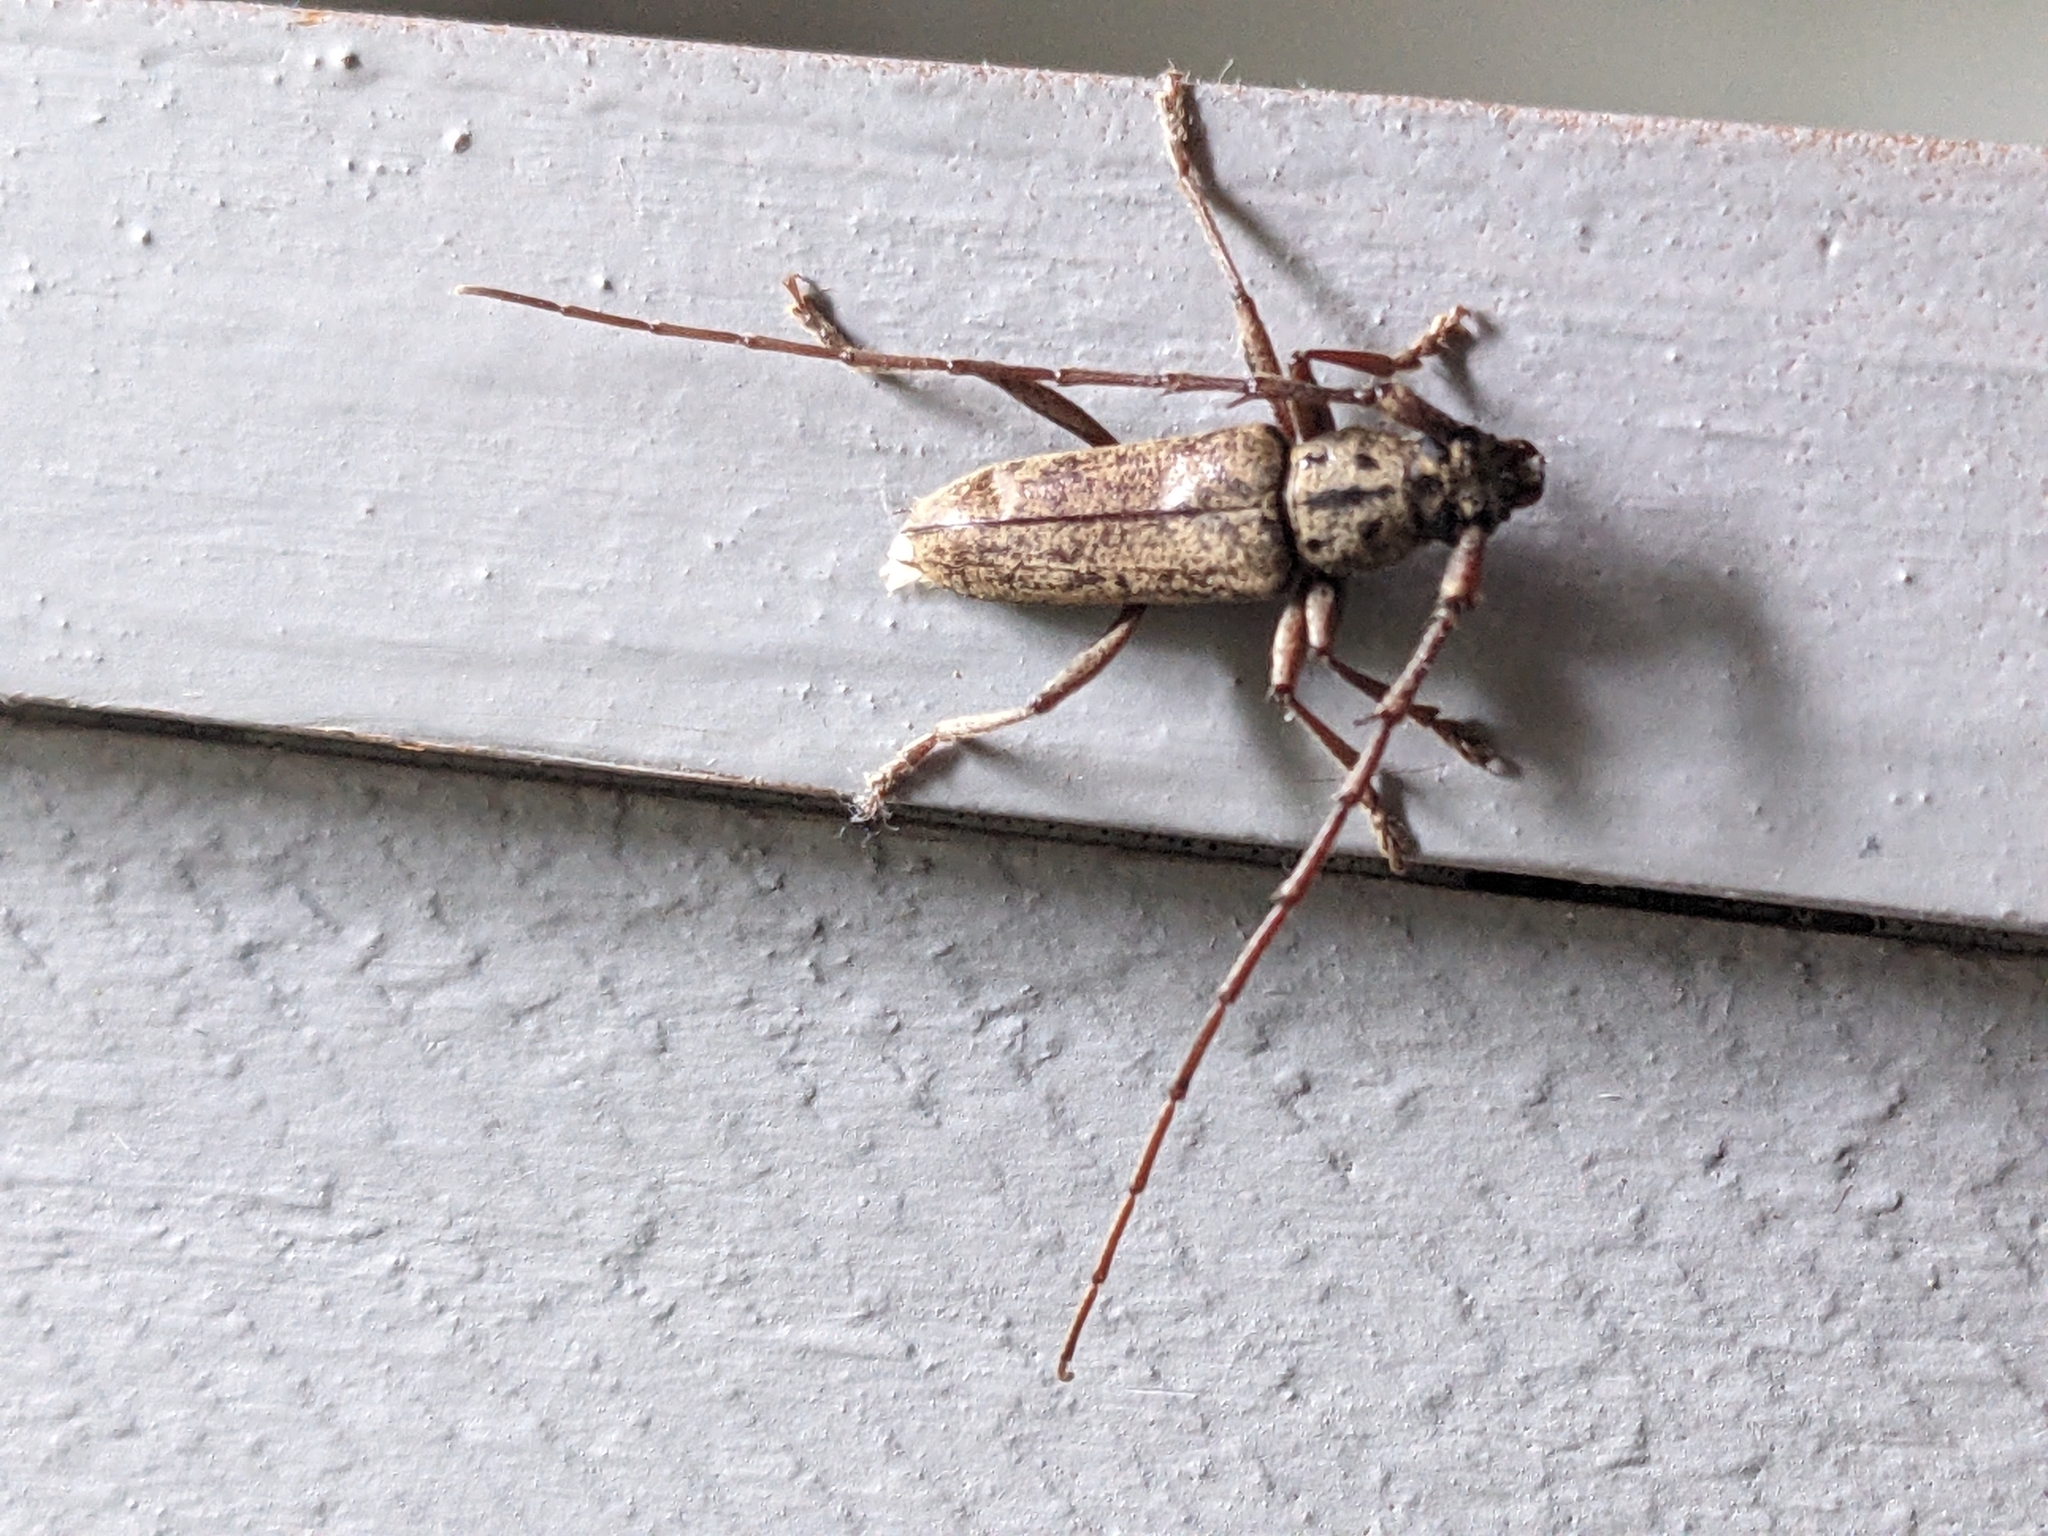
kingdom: Animalia
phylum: Arthropoda
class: Insecta
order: Coleoptera
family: Cerambycidae
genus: Elaphidion
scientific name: Elaphidion mucronatum
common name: Spined oak borer
